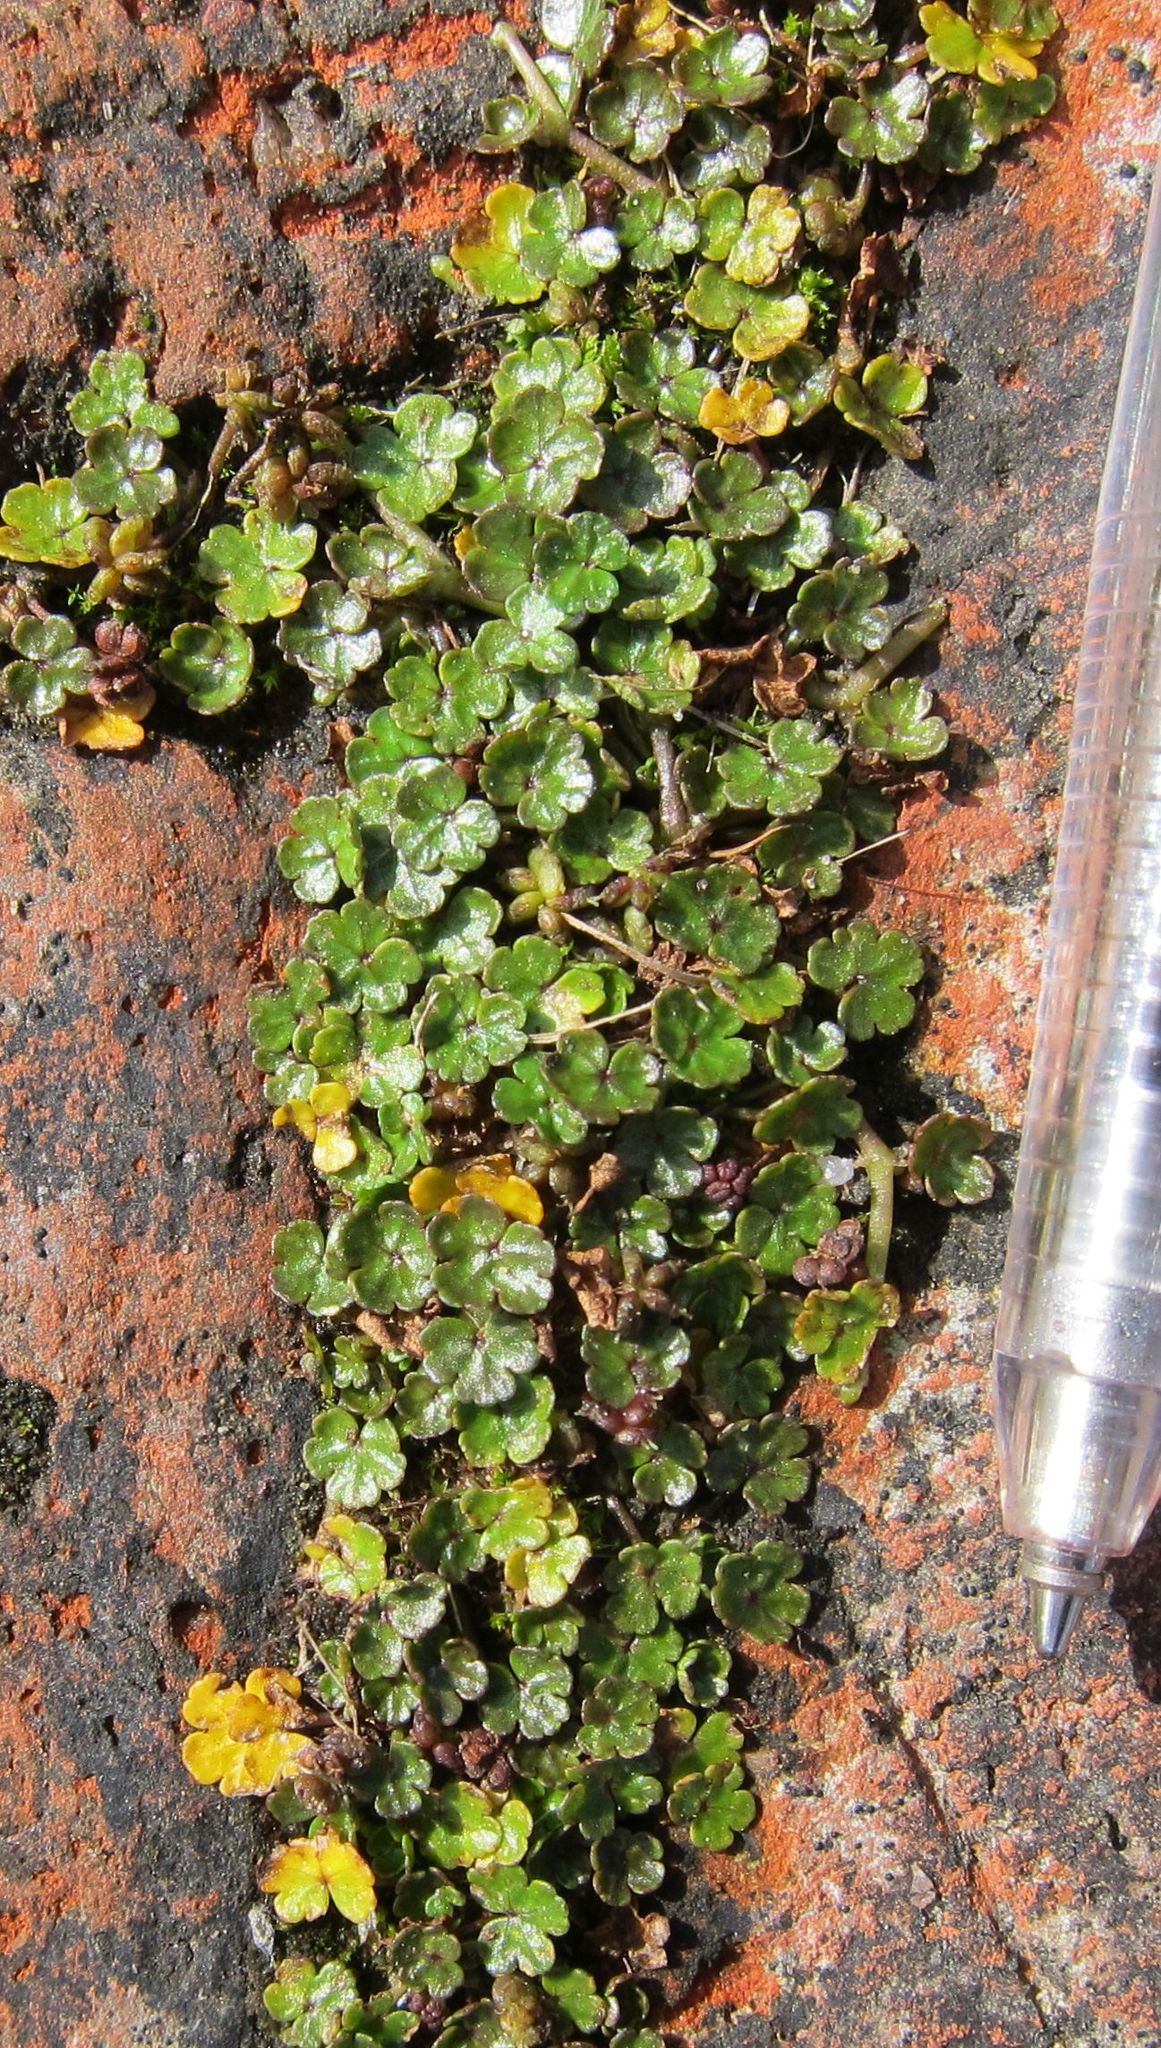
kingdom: Plantae
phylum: Tracheophyta
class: Magnoliopsida
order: Apiales
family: Araliaceae
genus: Hydrocotyle
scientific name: Hydrocotyle microphylla
